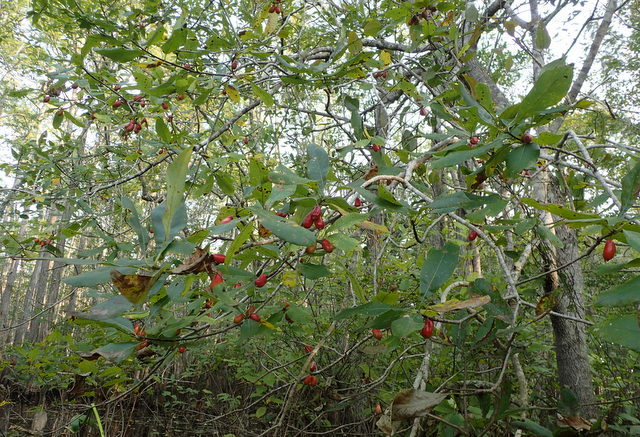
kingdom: Plantae
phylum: Tracheophyta
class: Magnoliopsida
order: Cornales
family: Nyssaceae
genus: Nyssa
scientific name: Nyssa ogeche
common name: Ogeechee tupelo
